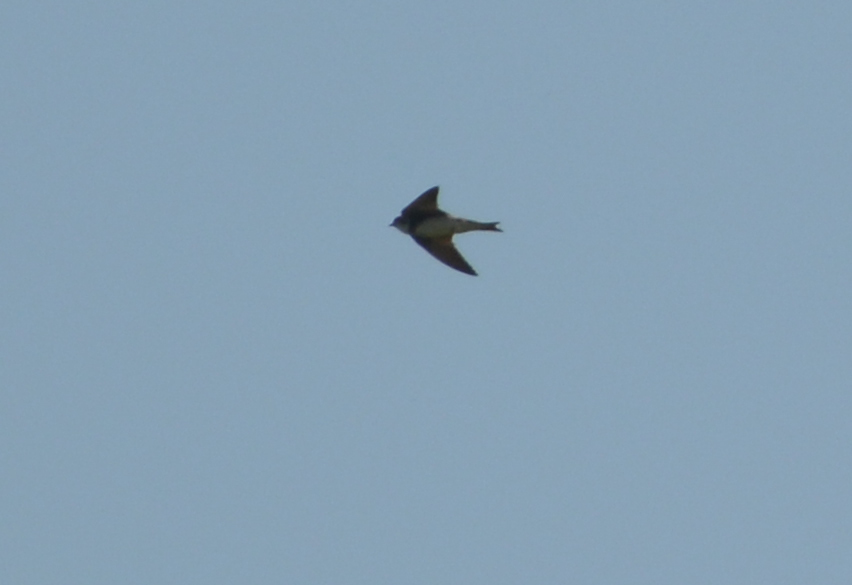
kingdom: Animalia
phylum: Chordata
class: Aves
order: Passeriformes
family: Hirundinidae
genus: Riparia
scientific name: Riparia riparia
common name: Sand martin
